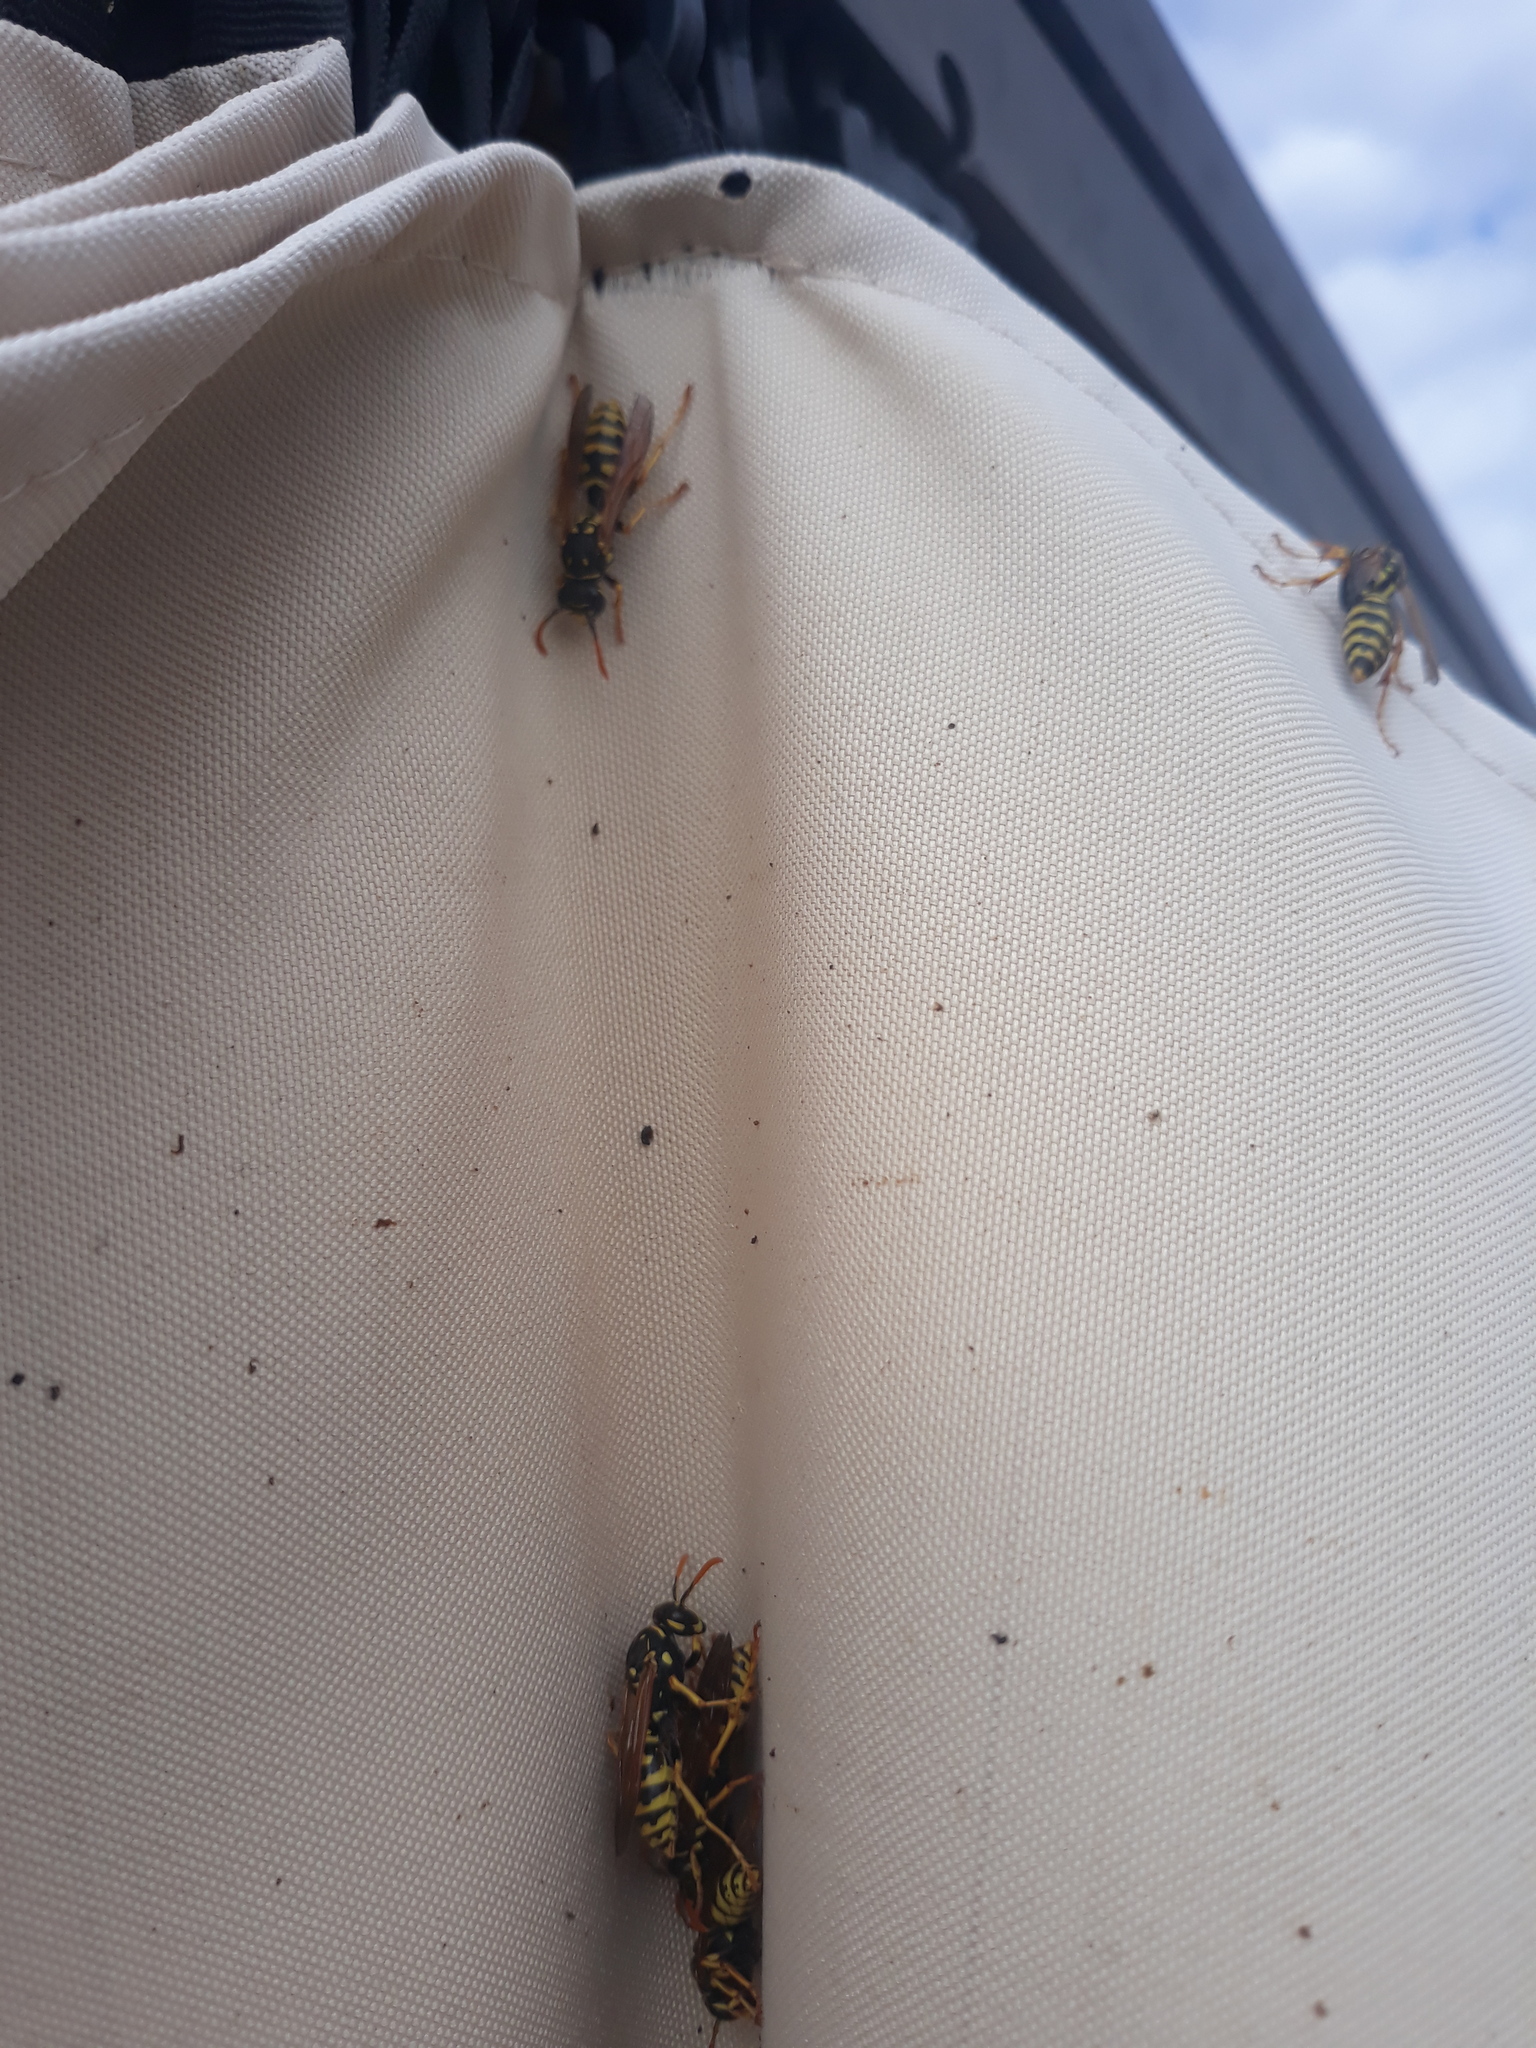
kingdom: Animalia
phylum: Arthropoda
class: Insecta
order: Hymenoptera
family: Eumenidae
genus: Polistes
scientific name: Polistes dominula
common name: Paper wasp
